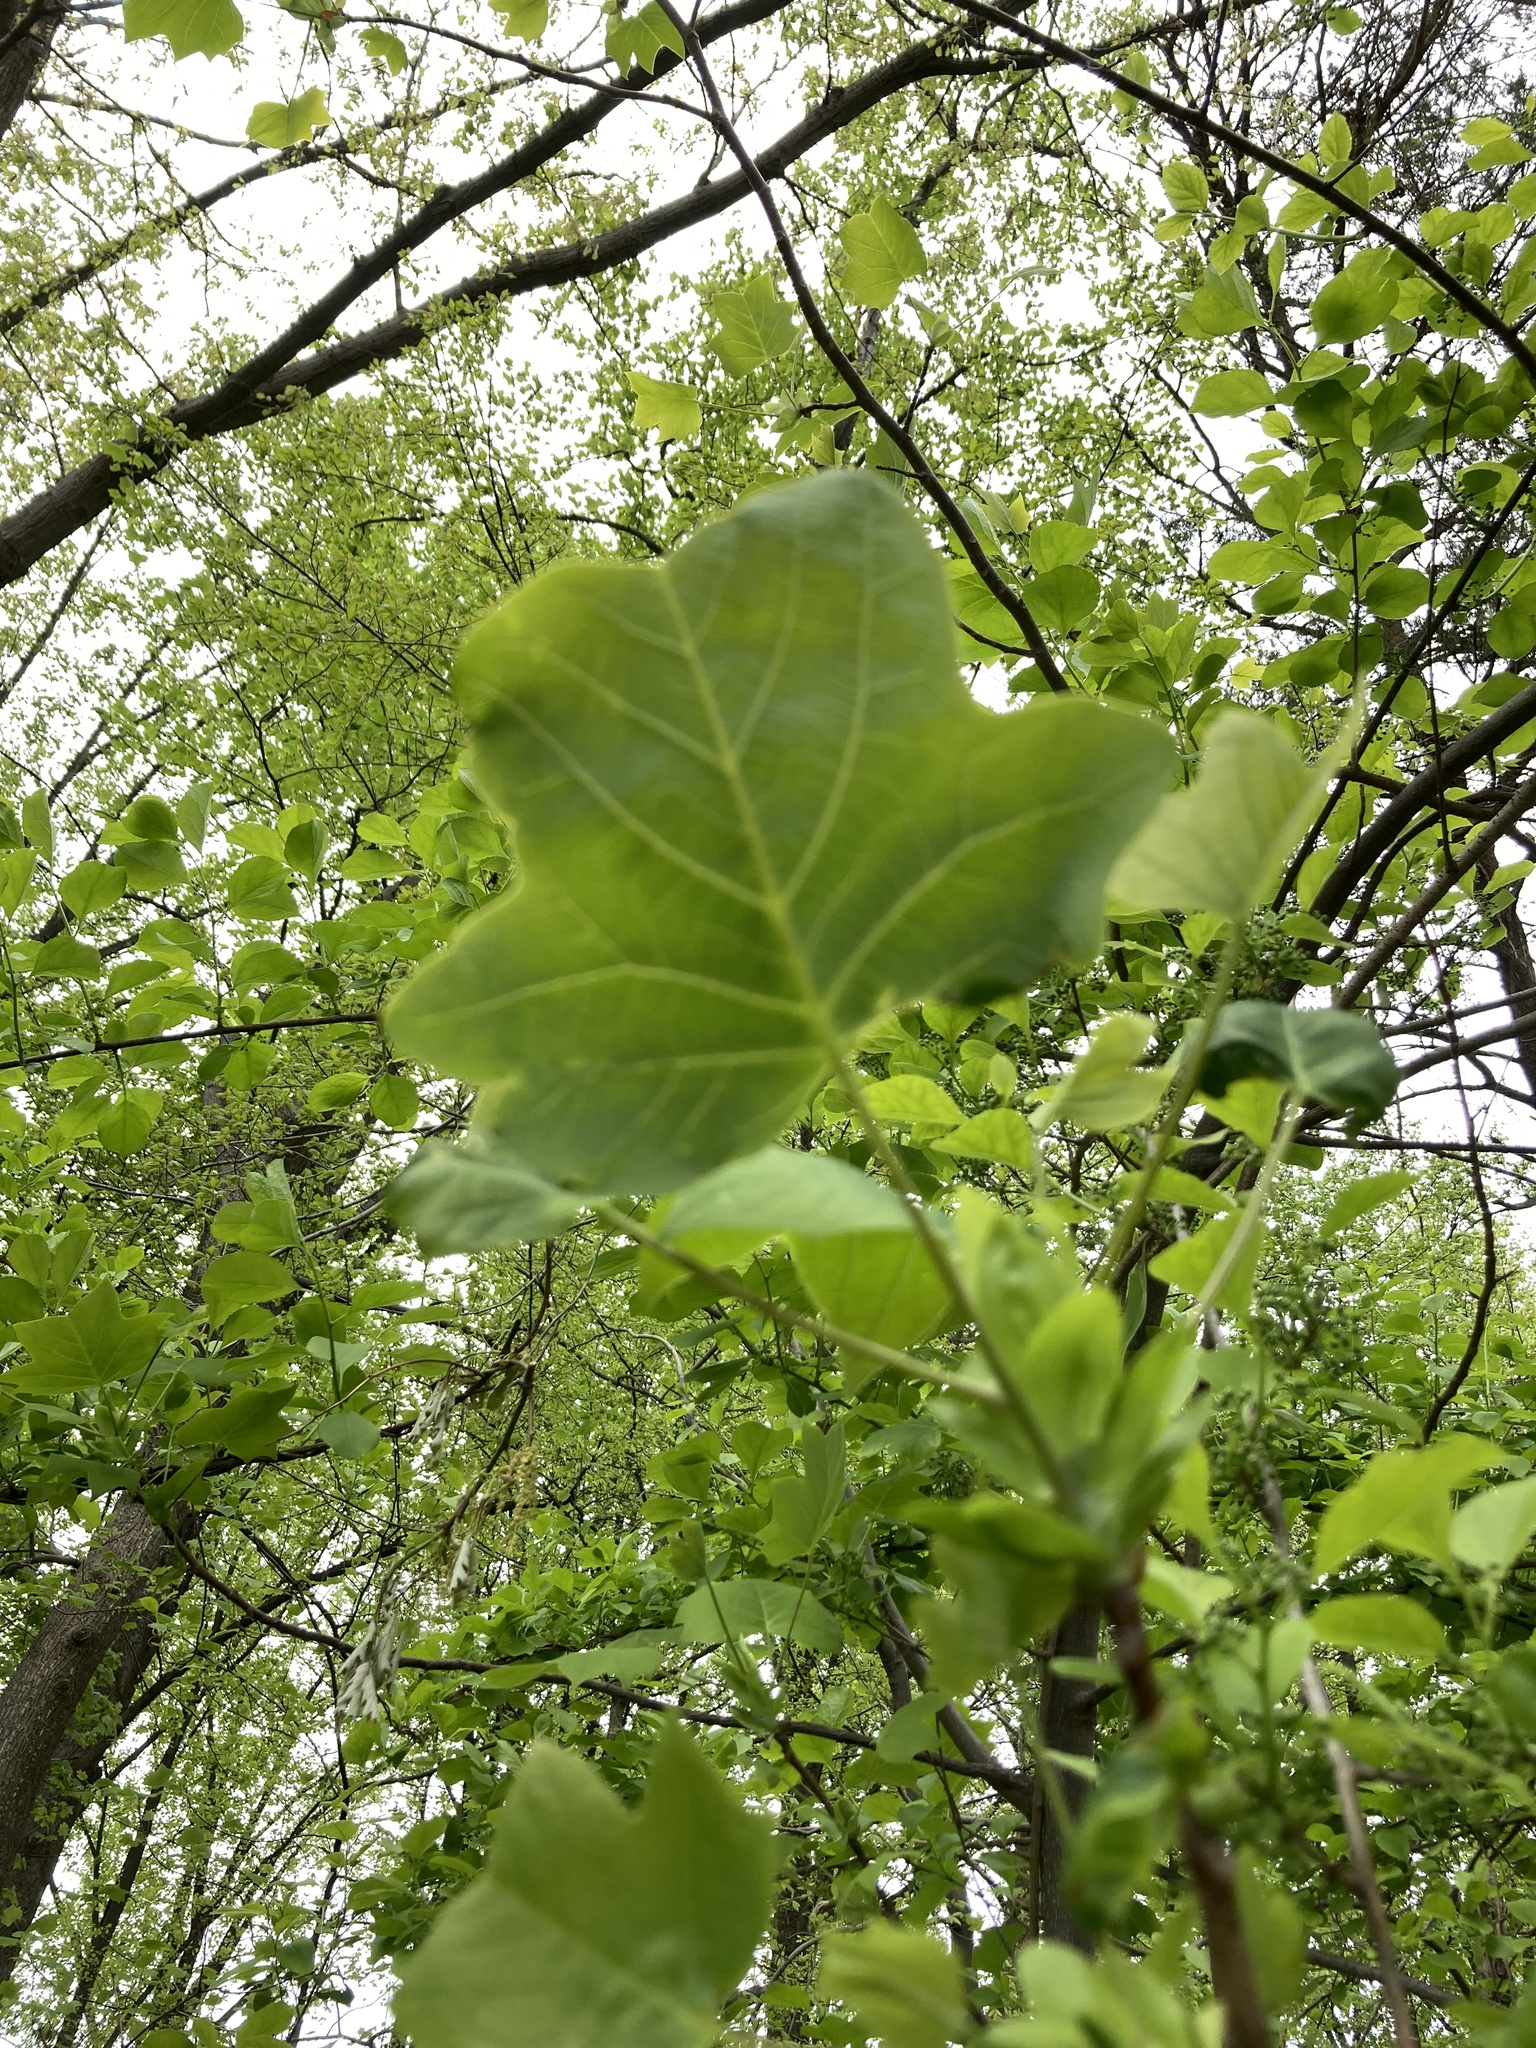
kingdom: Plantae
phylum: Tracheophyta
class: Magnoliopsida
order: Magnoliales
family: Magnoliaceae
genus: Liriodendron
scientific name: Liriodendron tulipifera
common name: Tulip tree
